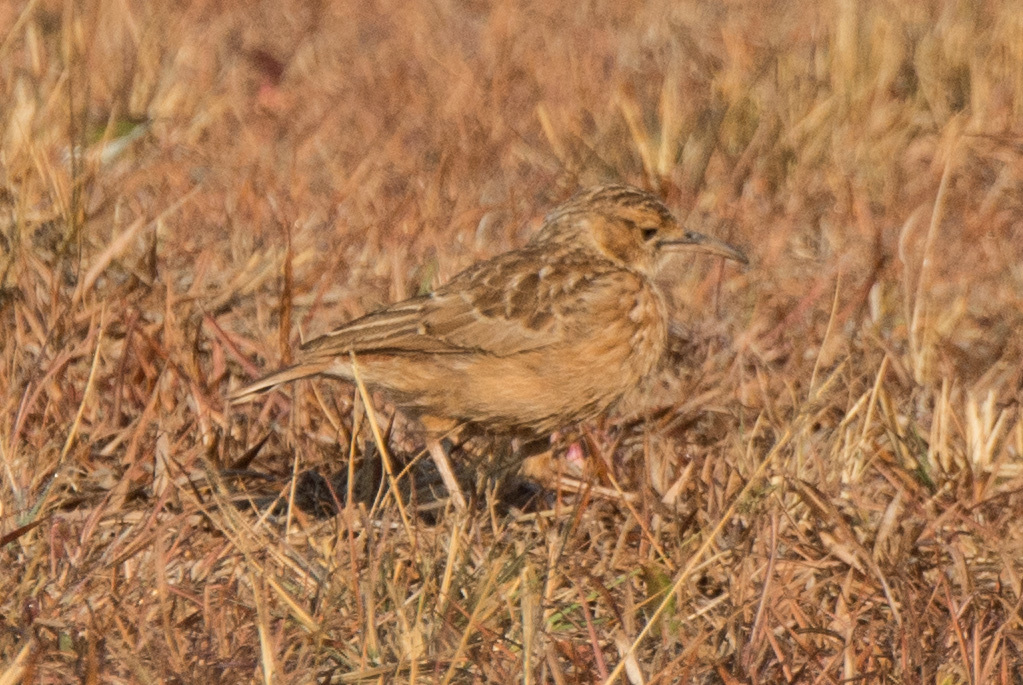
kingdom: Animalia
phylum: Chordata
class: Aves
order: Passeriformes
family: Alaudidae
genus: Chersomanes
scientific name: Chersomanes albofasciata
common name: Spike-heeled lark
